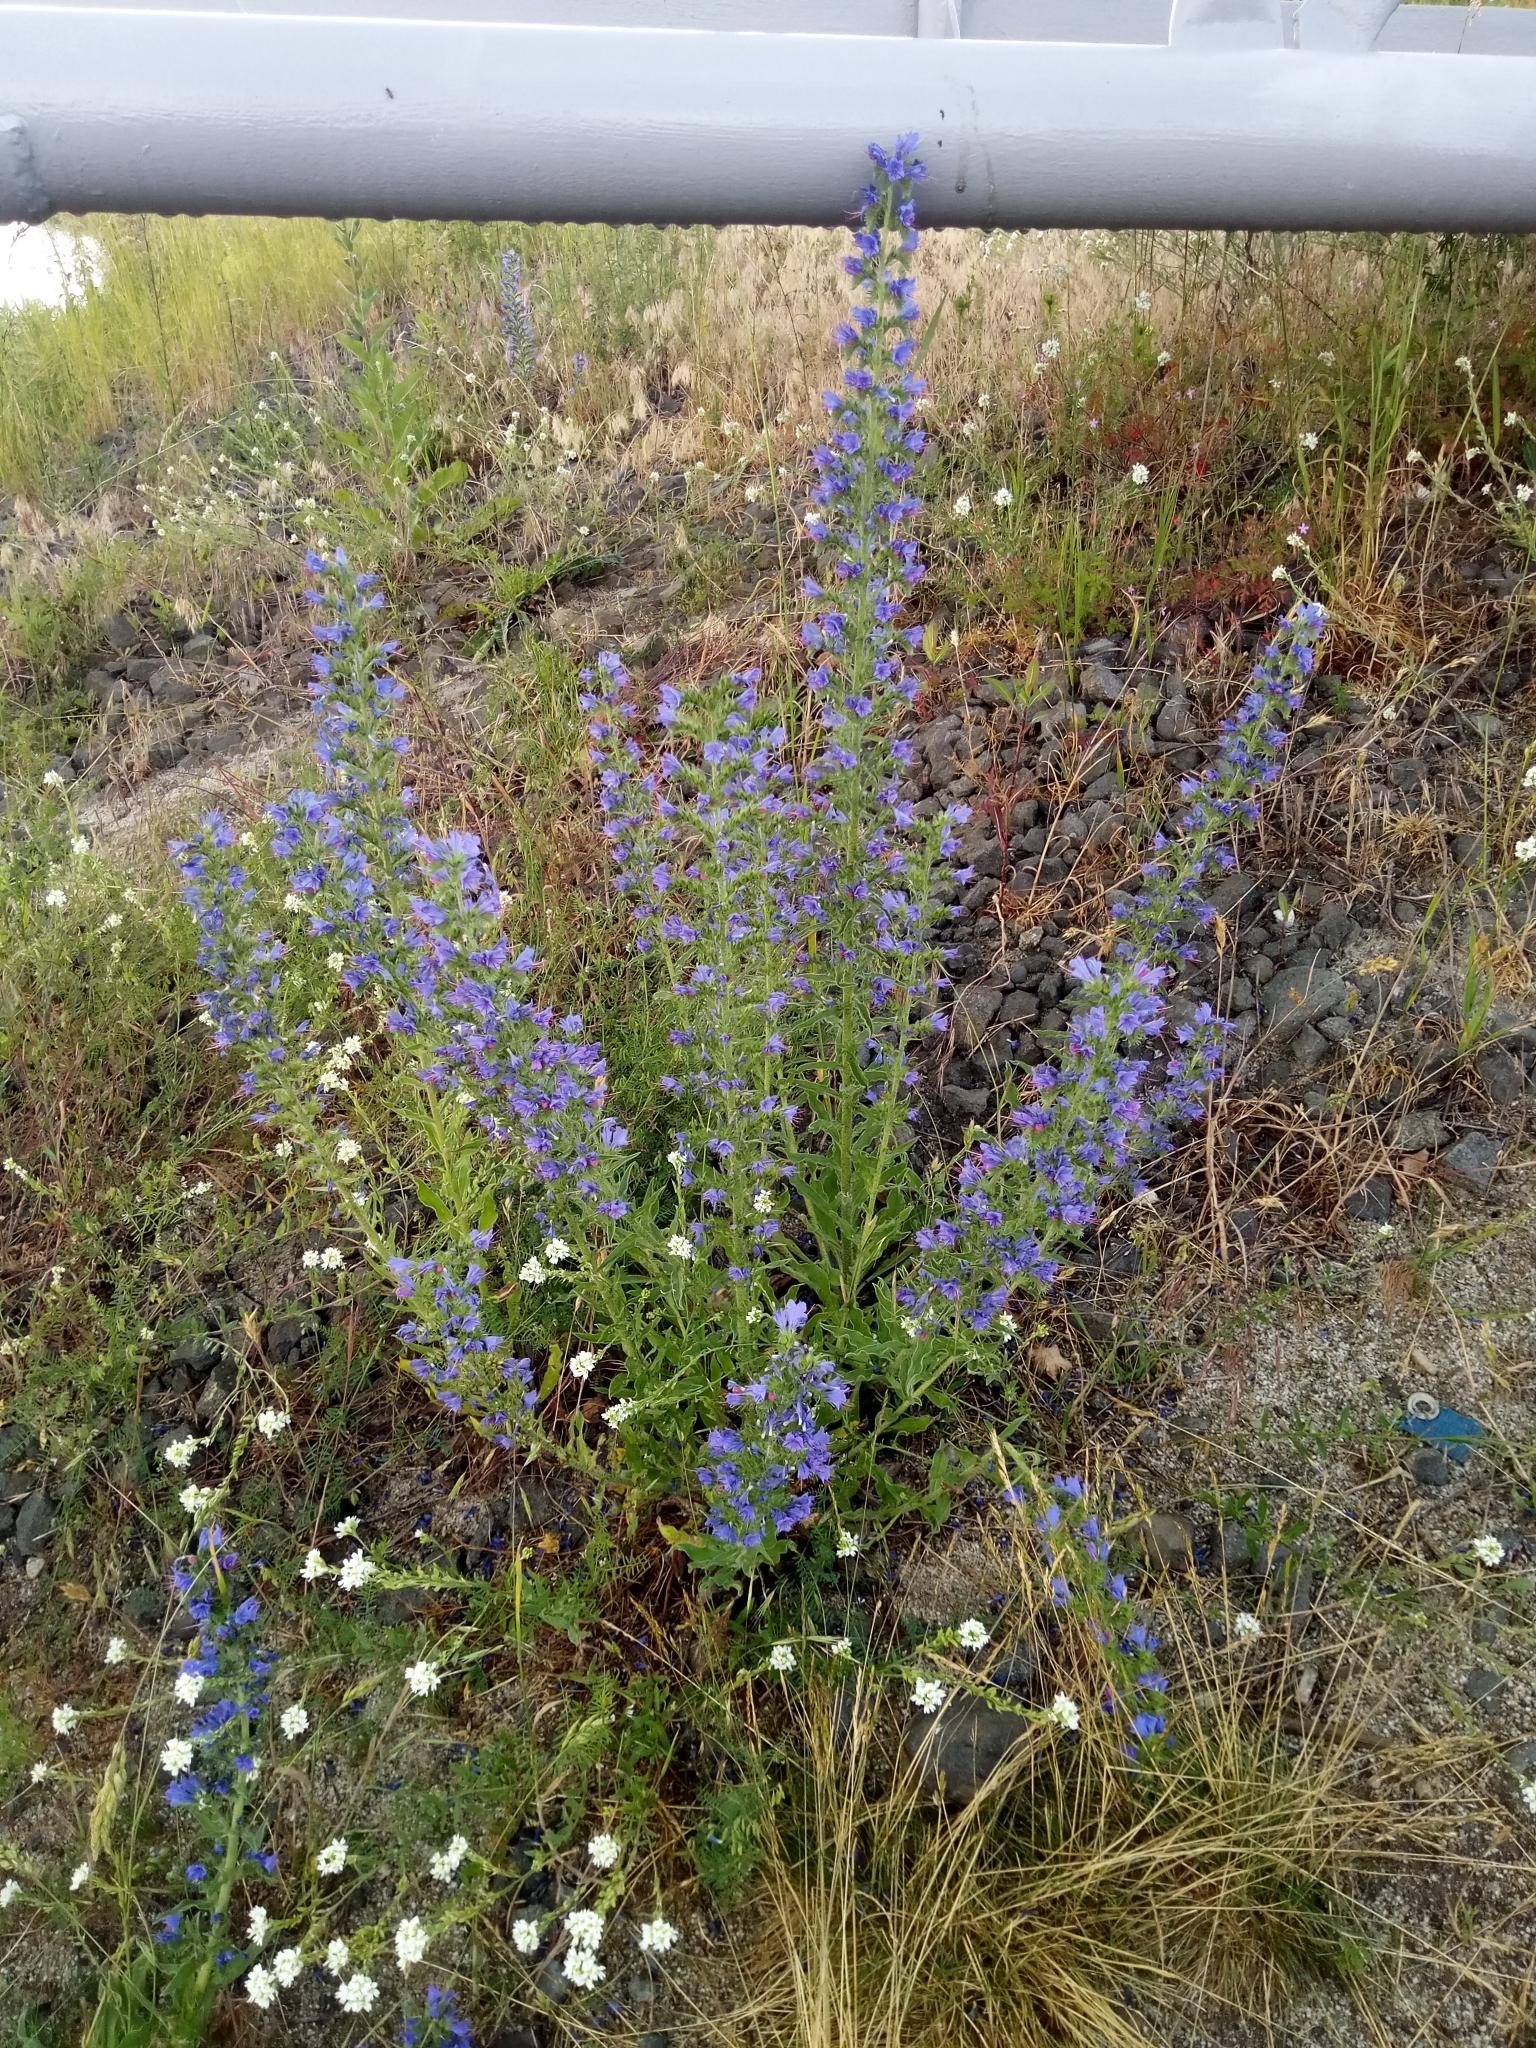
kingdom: Plantae
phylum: Tracheophyta
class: Magnoliopsida
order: Boraginales
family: Boraginaceae
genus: Echium
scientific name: Echium vulgare
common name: Common viper's bugloss
